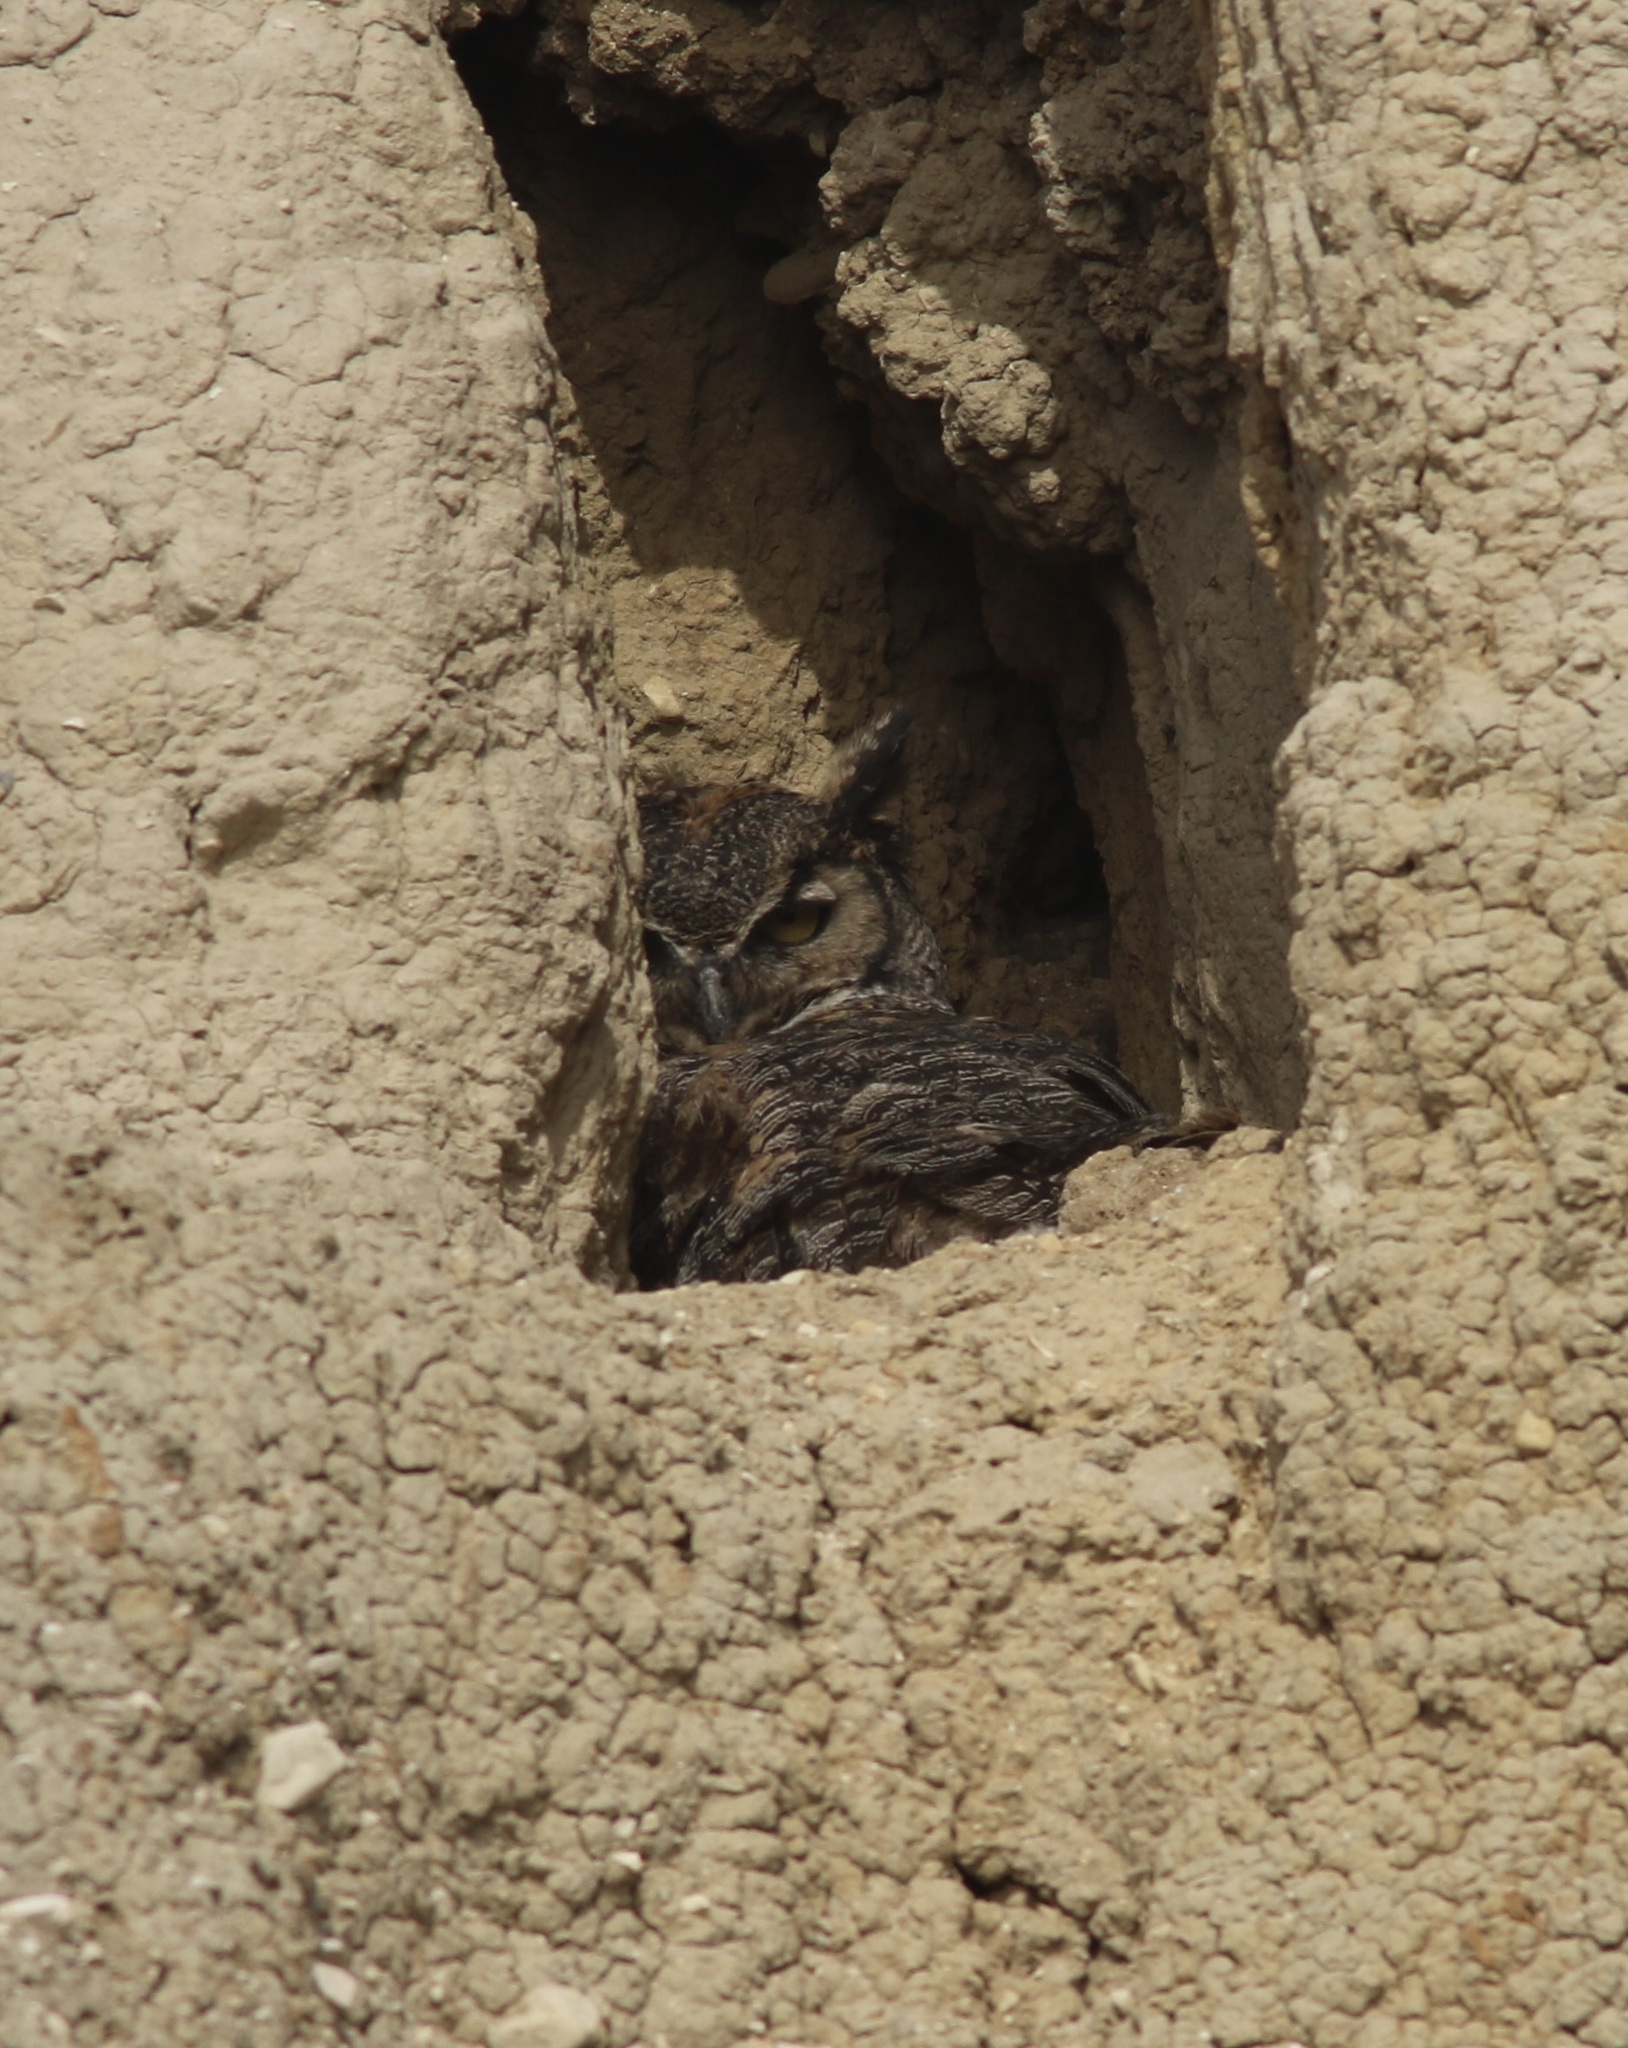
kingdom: Animalia
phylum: Chordata
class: Aves
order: Strigiformes
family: Strigidae
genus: Bubo
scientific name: Bubo virginianus
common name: Great horned owl
